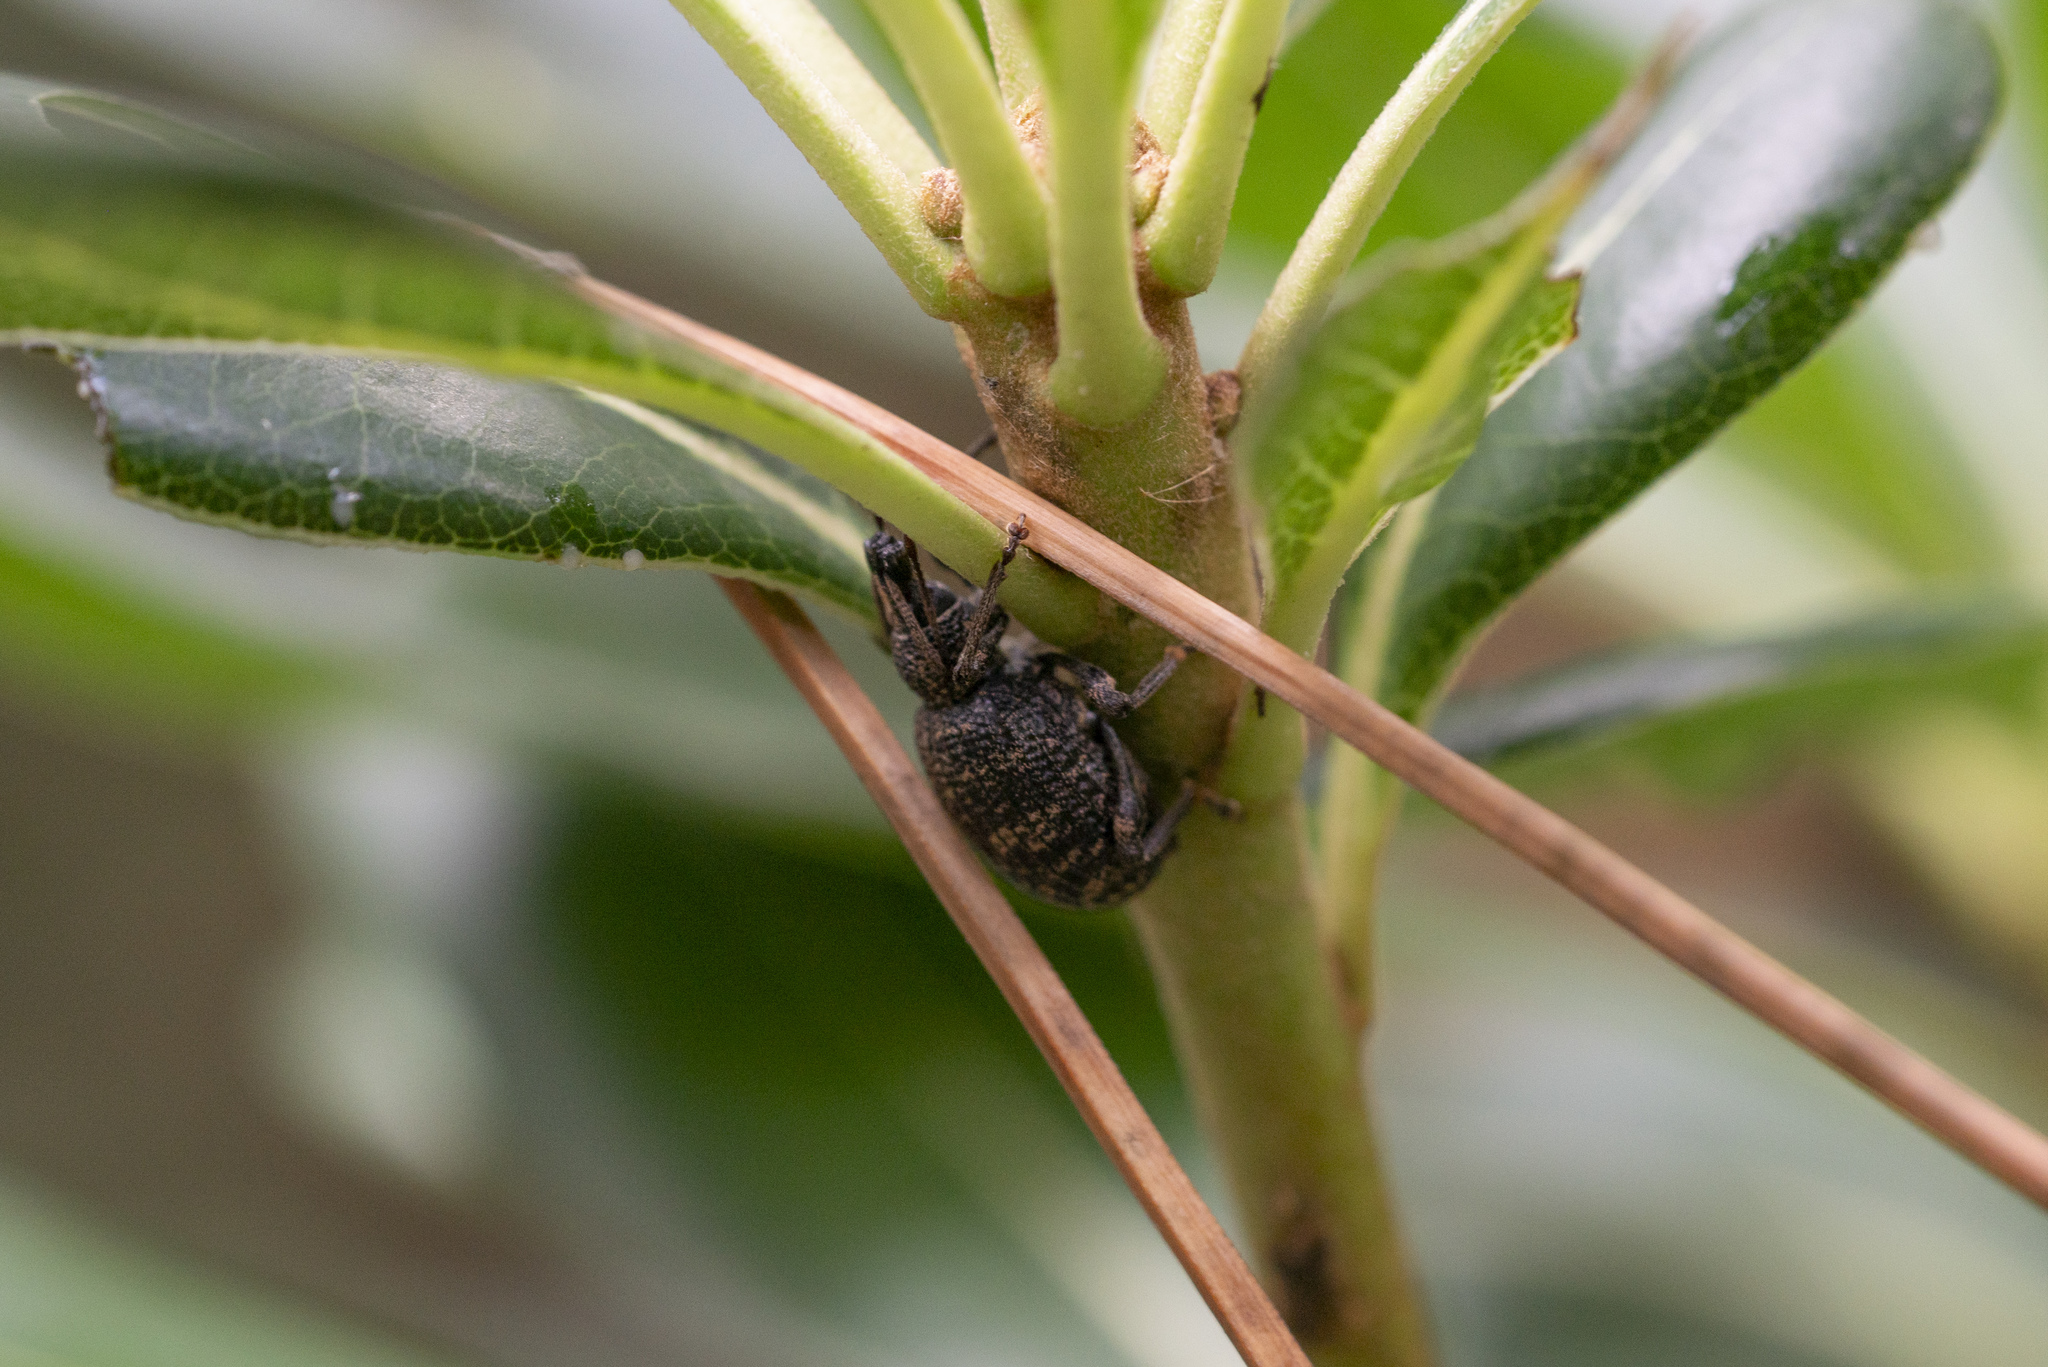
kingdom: Animalia
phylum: Arthropoda
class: Insecta
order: Coleoptera
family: Curculionidae
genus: Otiorhynchus
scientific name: Otiorhynchus obesus
